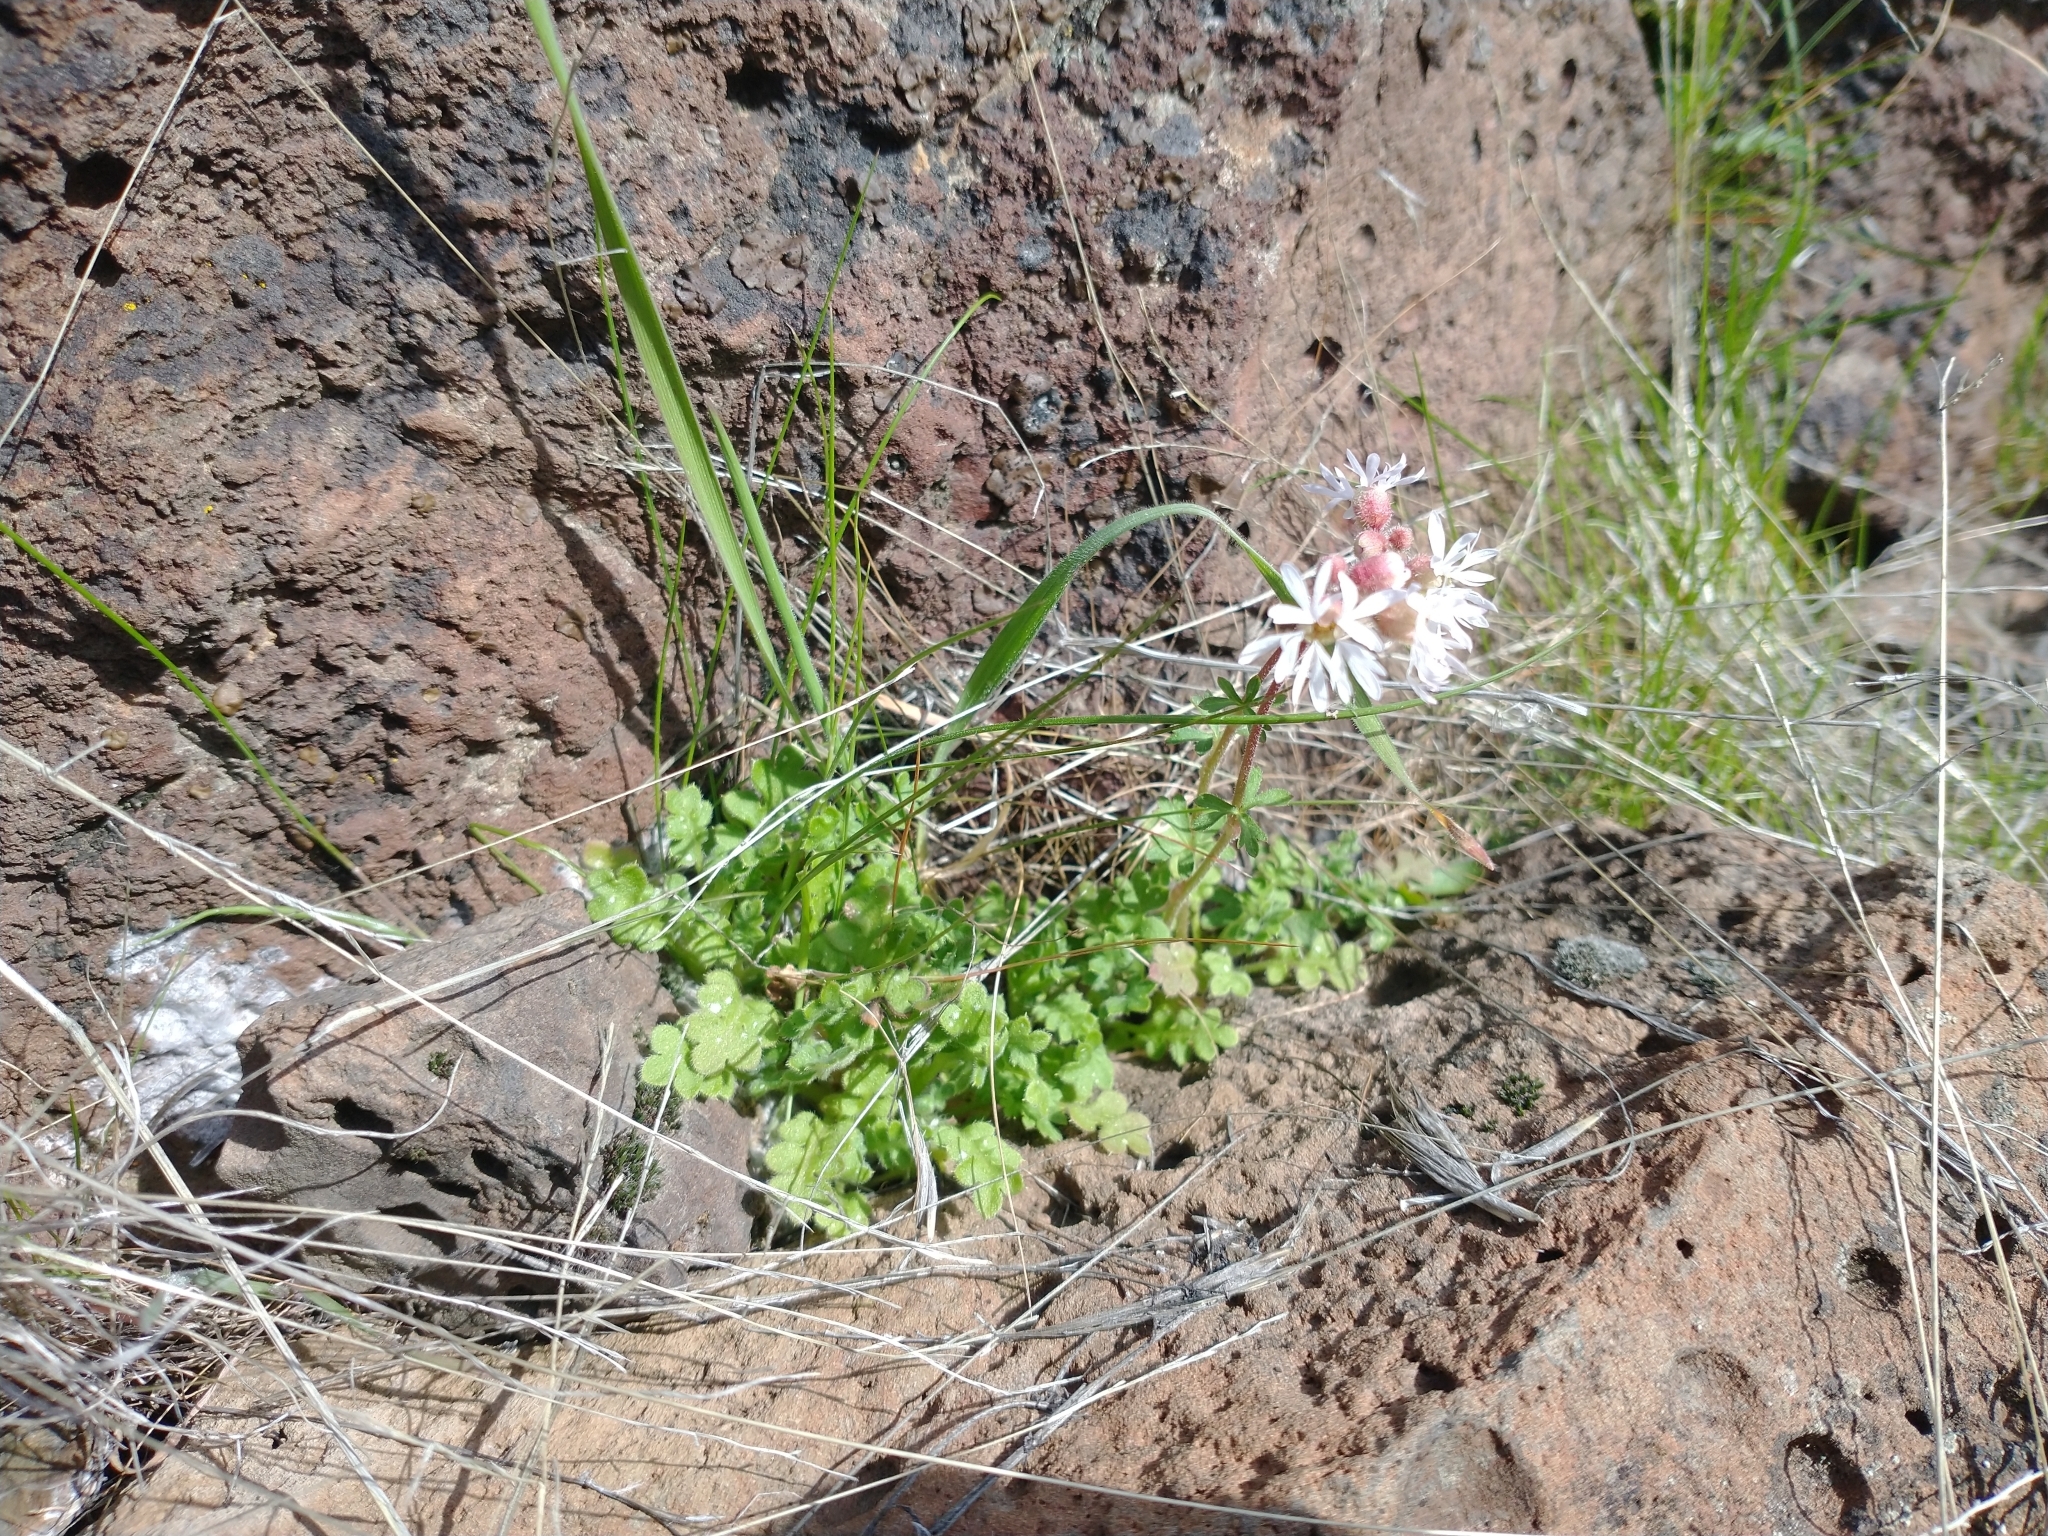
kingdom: Plantae
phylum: Tracheophyta
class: Magnoliopsida
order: Saxifragales
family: Saxifragaceae
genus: Lithophragma
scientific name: Lithophragma glabrum
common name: Bulbous prairie-star
